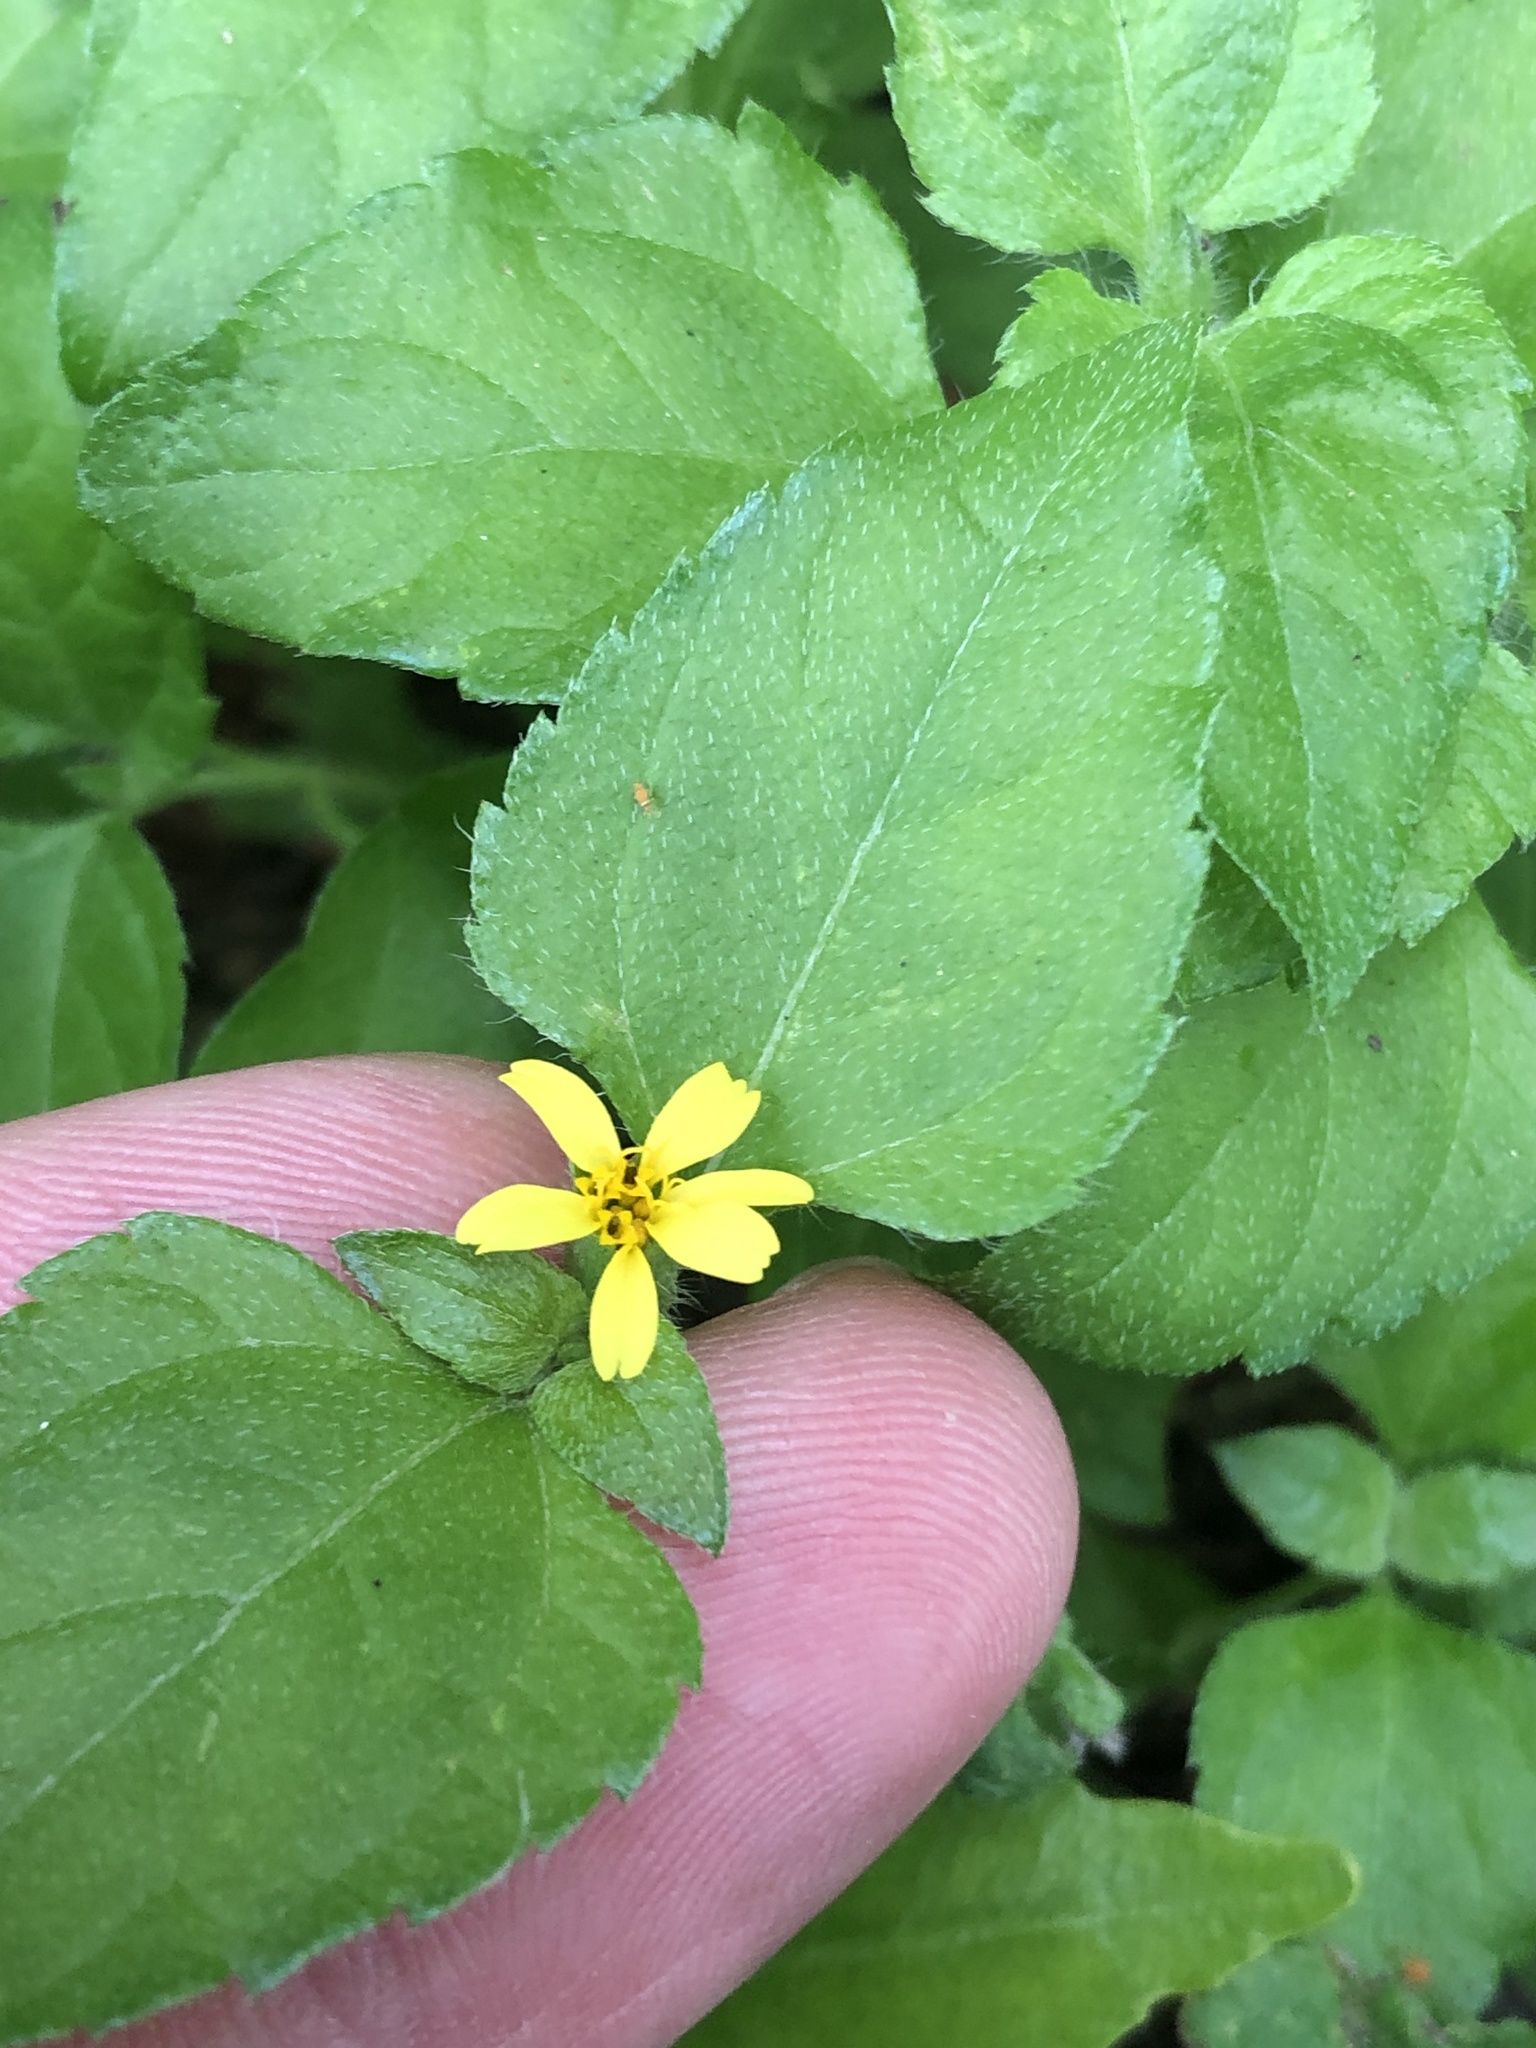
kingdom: Plantae
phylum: Tracheophyta
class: Magnoliopsida
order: Asterales
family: Asteraceae
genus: Calyptocarpus
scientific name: Calyptocarpus vialis
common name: Straggler daisy
